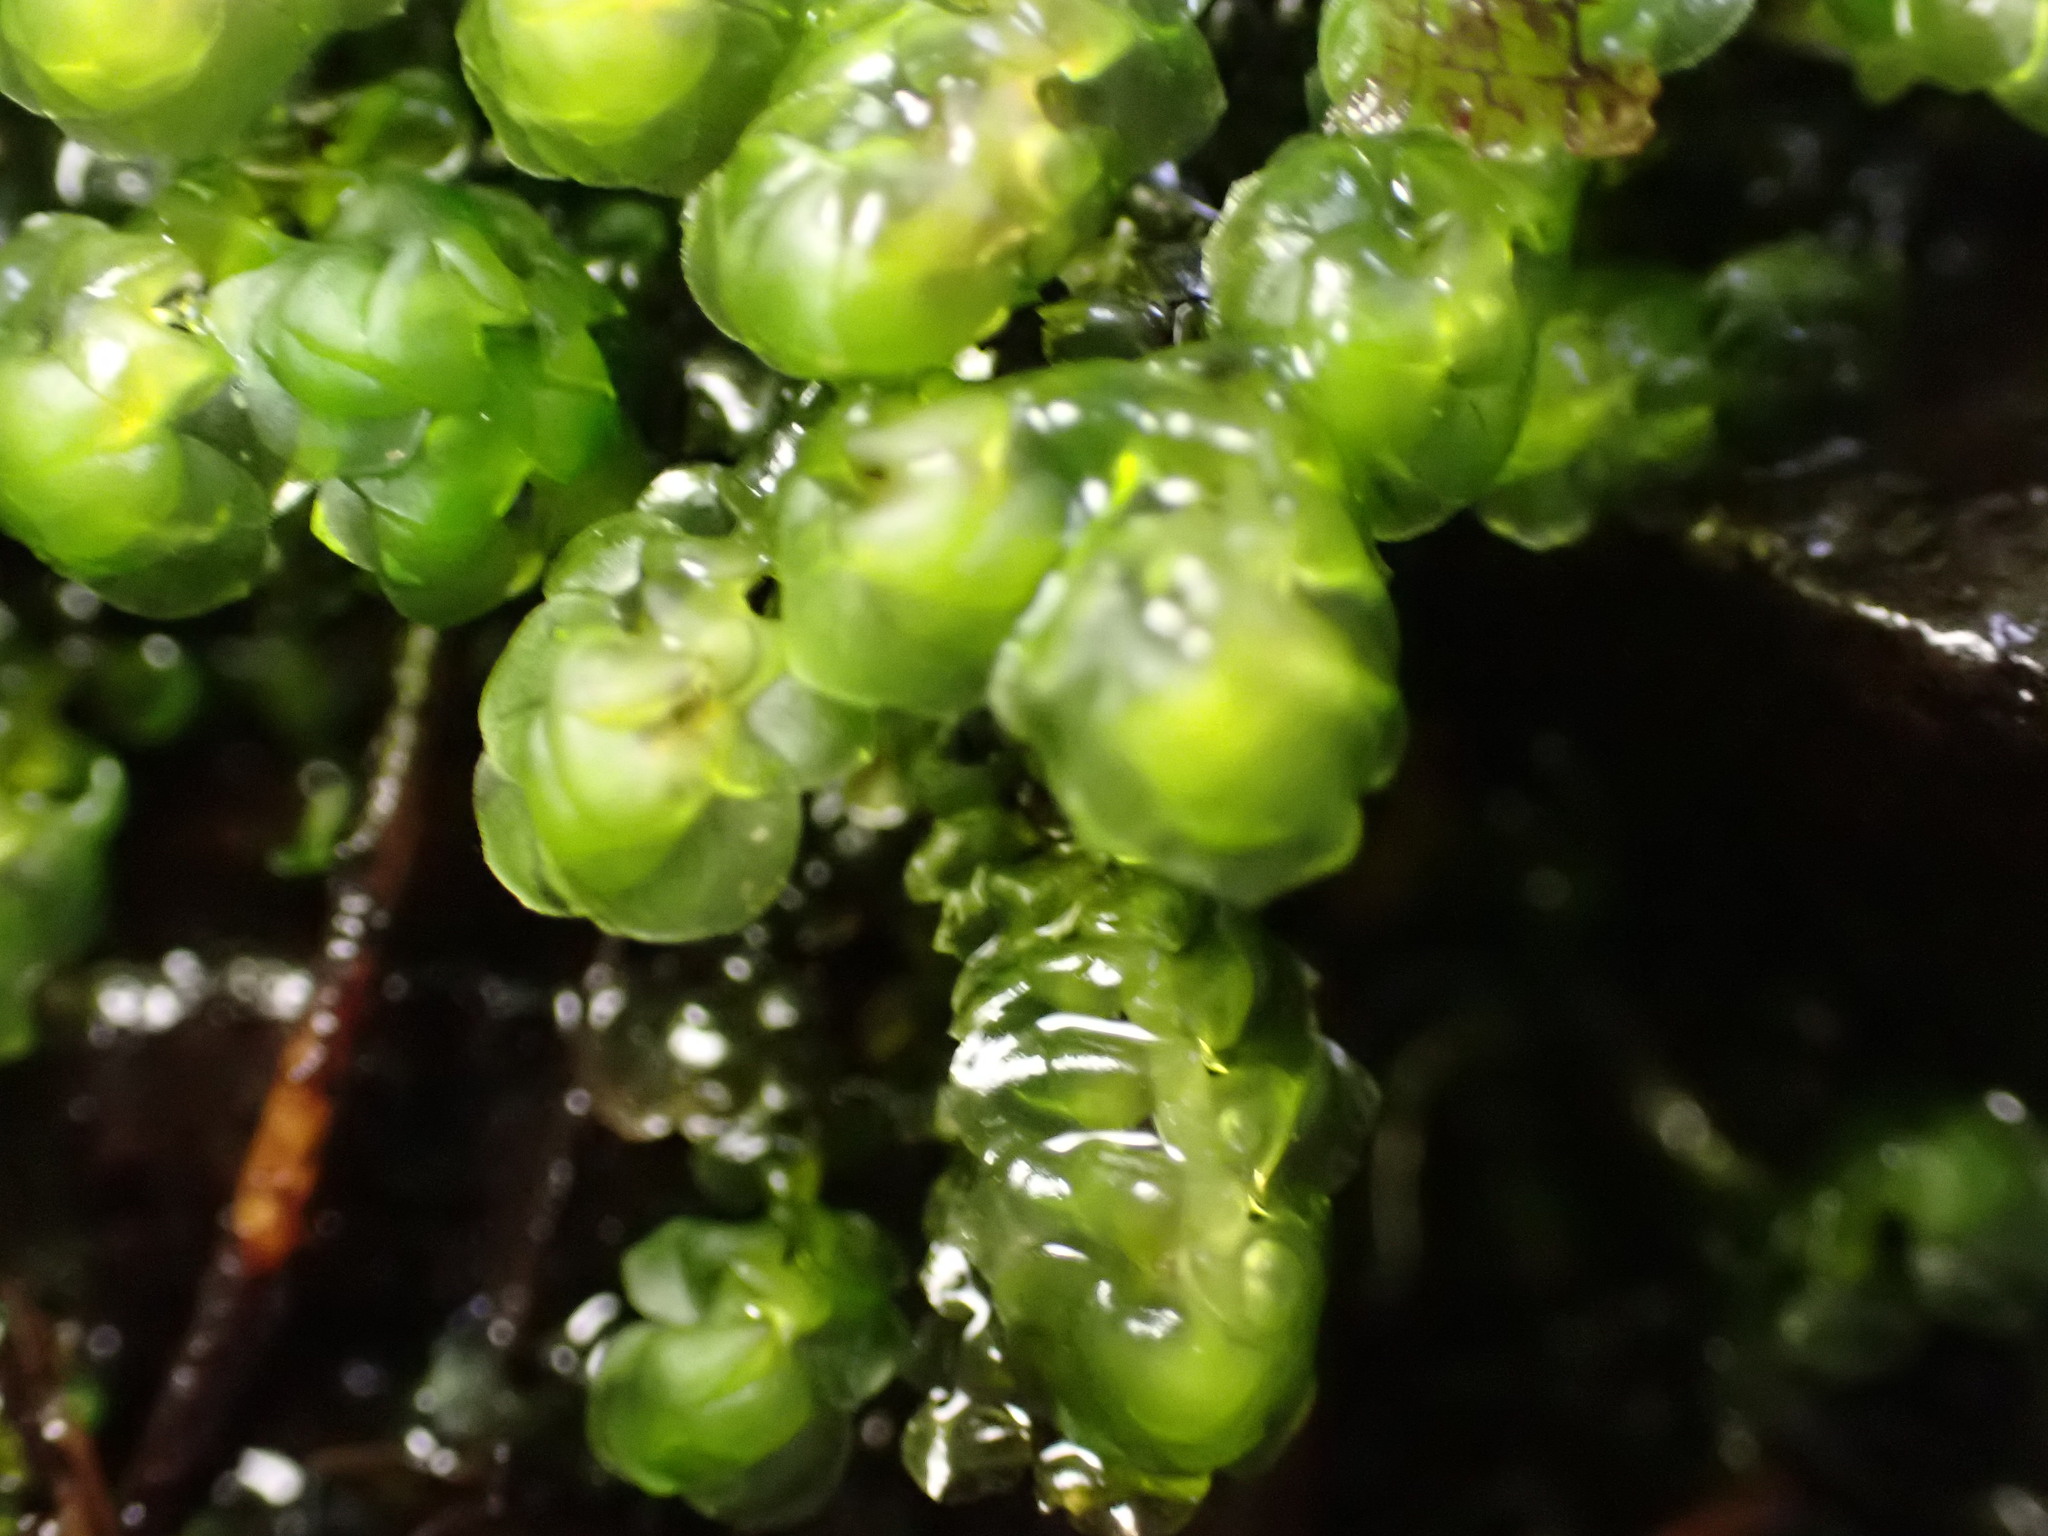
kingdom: Plantae
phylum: Marchantiophyta
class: Jungermanniopsida
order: Jungermanniales
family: Scapaniaceae
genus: Scapania
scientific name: Scapania undulata
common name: Water earwort
